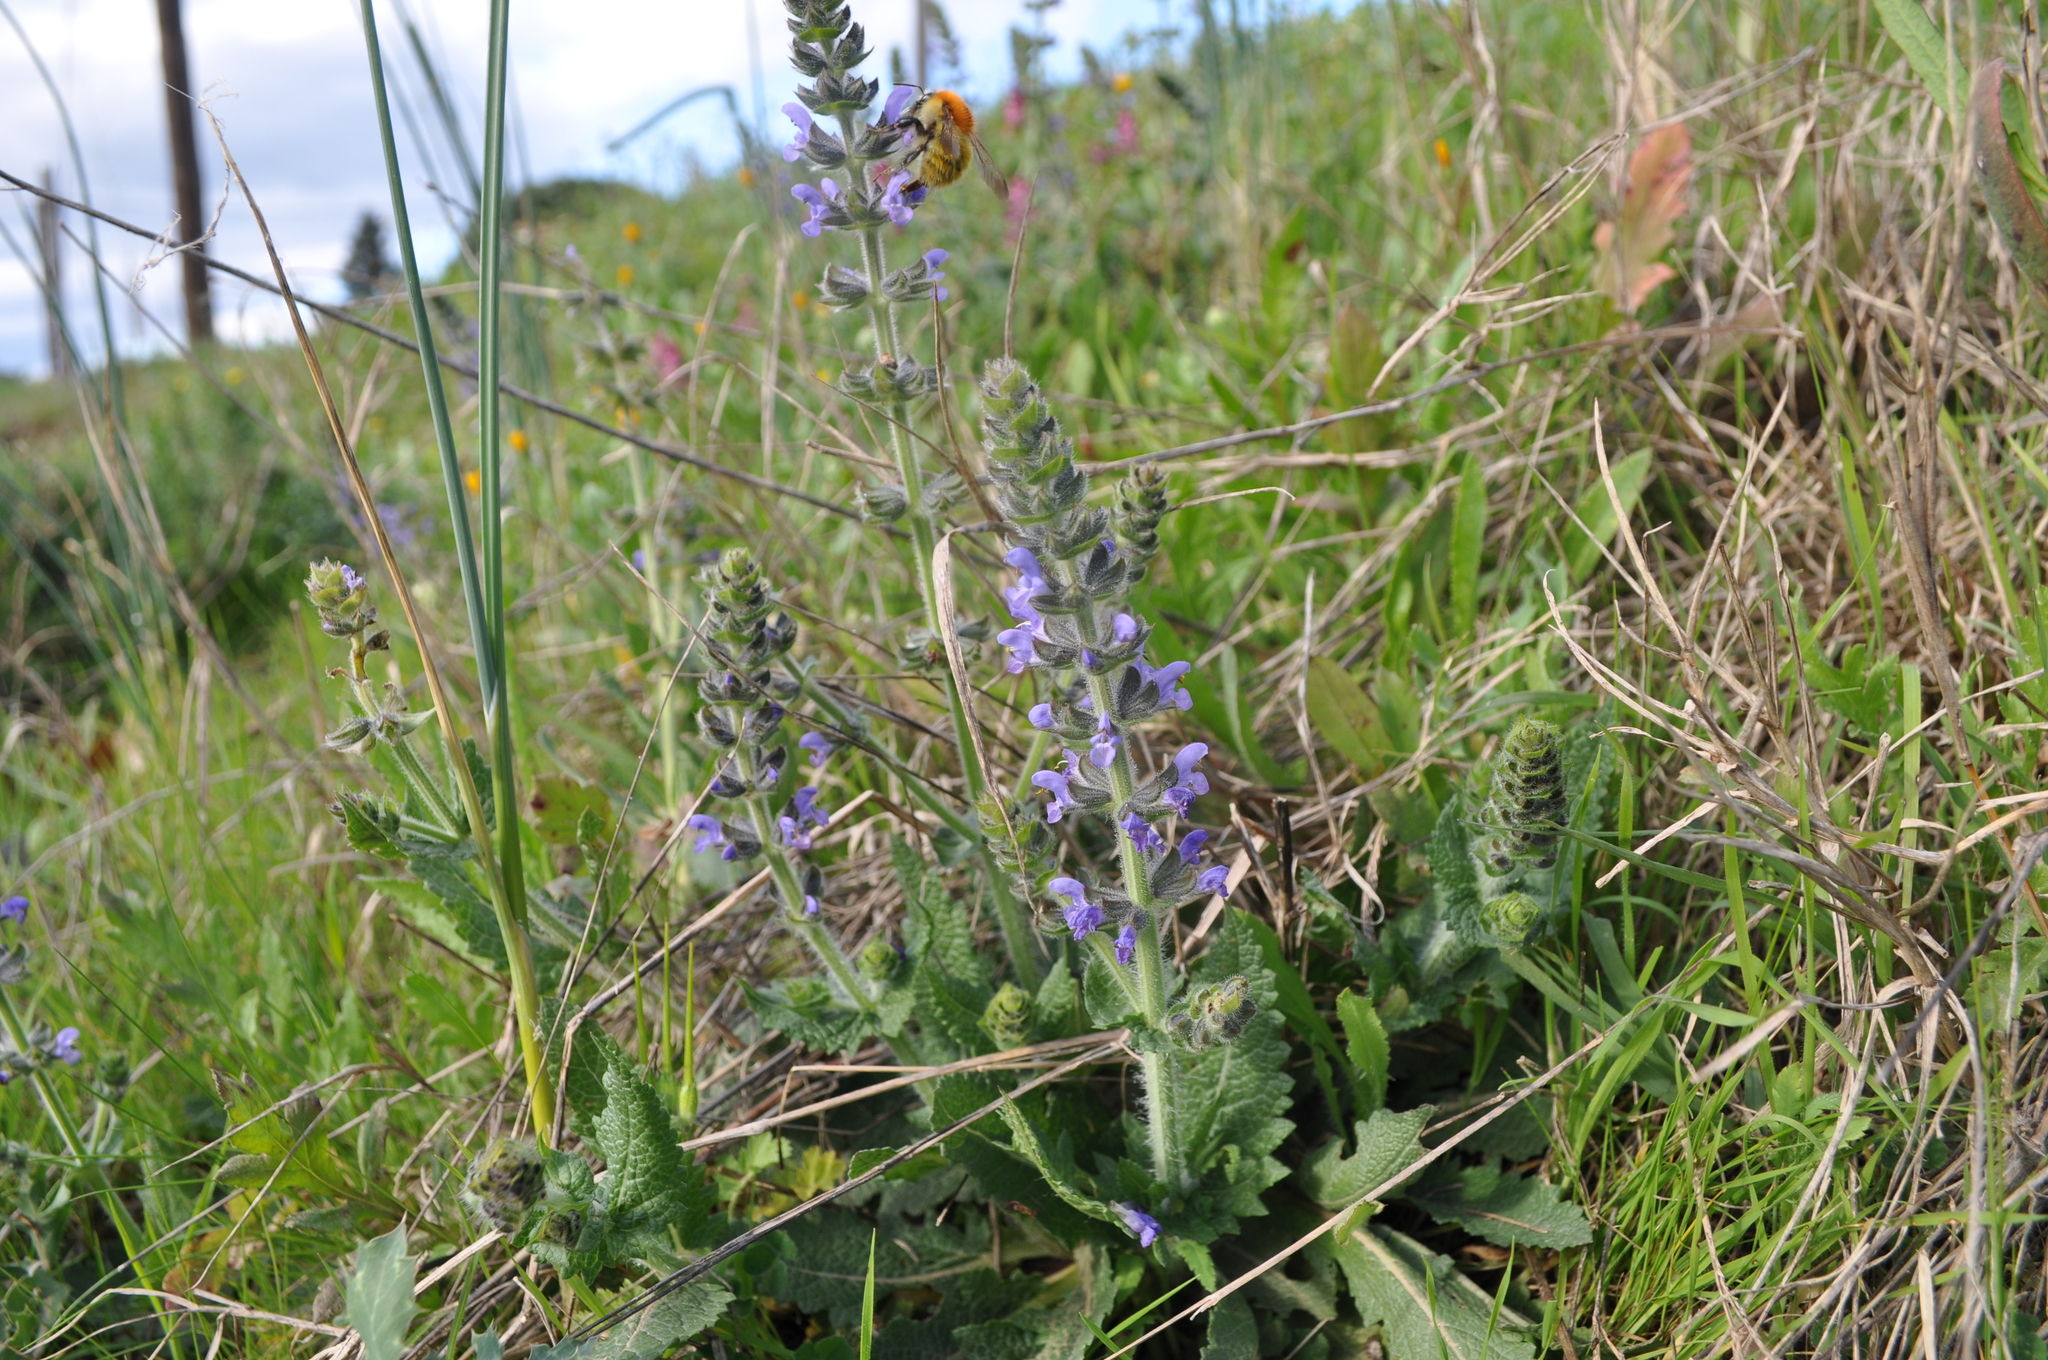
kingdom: Plantae
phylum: Tracheophyta
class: Magnoliopsida
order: Lamiales
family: Lamiaceae
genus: Salvia
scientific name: Salvia verbenaca
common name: Wild clary
